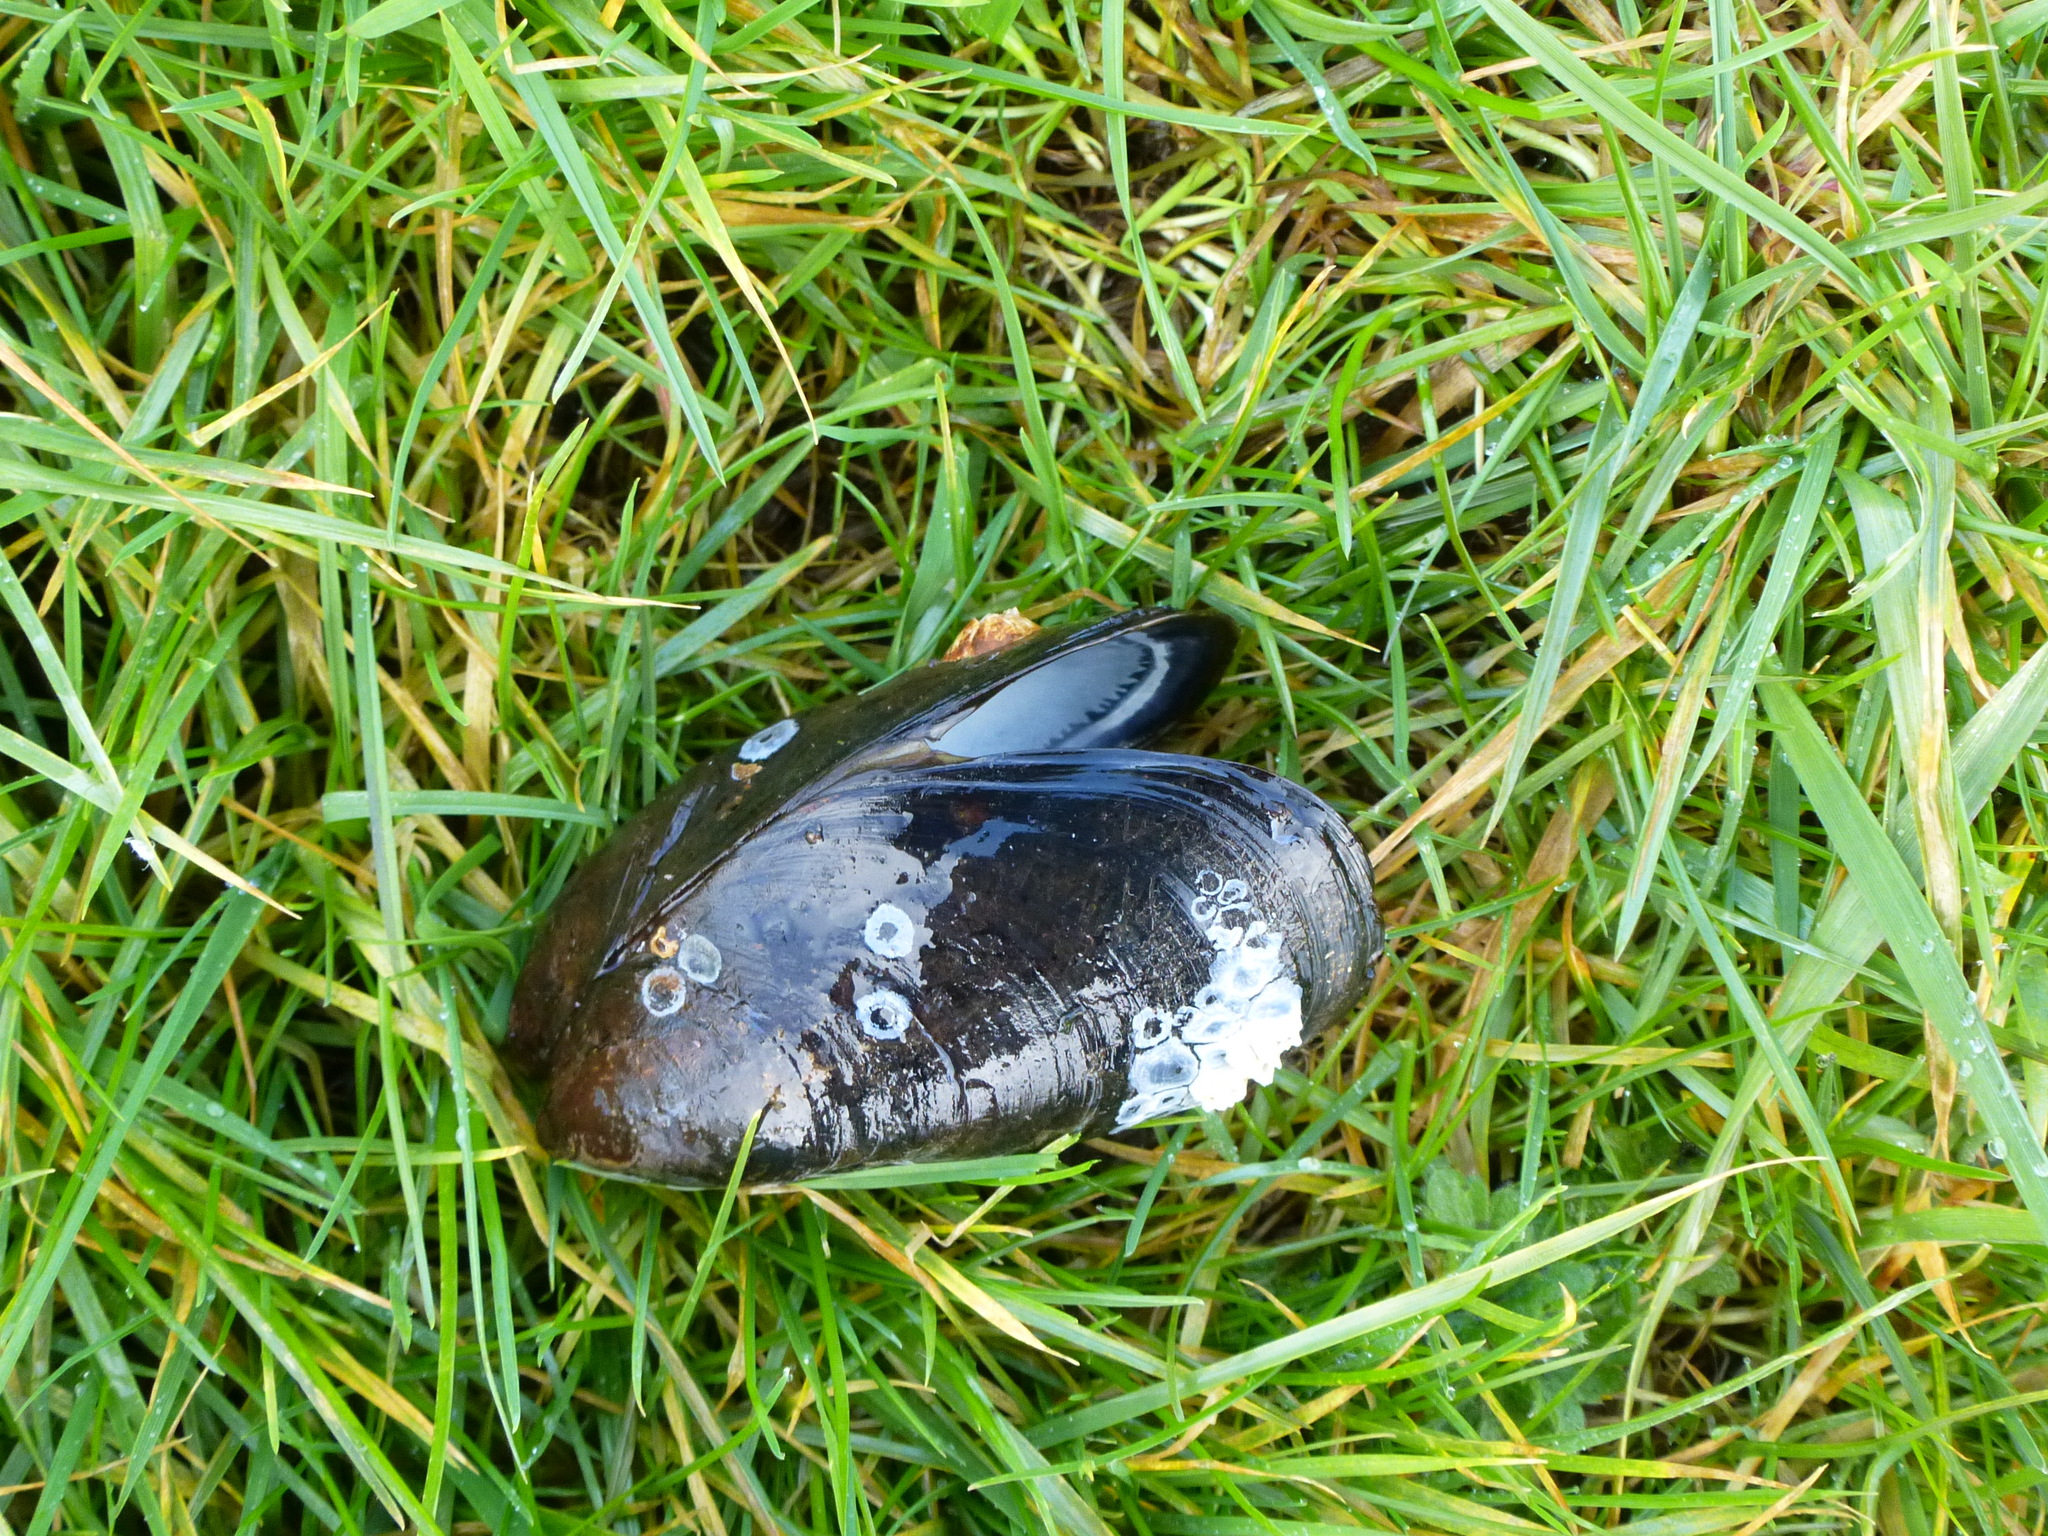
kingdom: Animalia
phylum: Mollusca
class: Bivalvia
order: Mytilida
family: Mytilidae
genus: Mytilus
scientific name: Mytilus edulis
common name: Blue mussel
